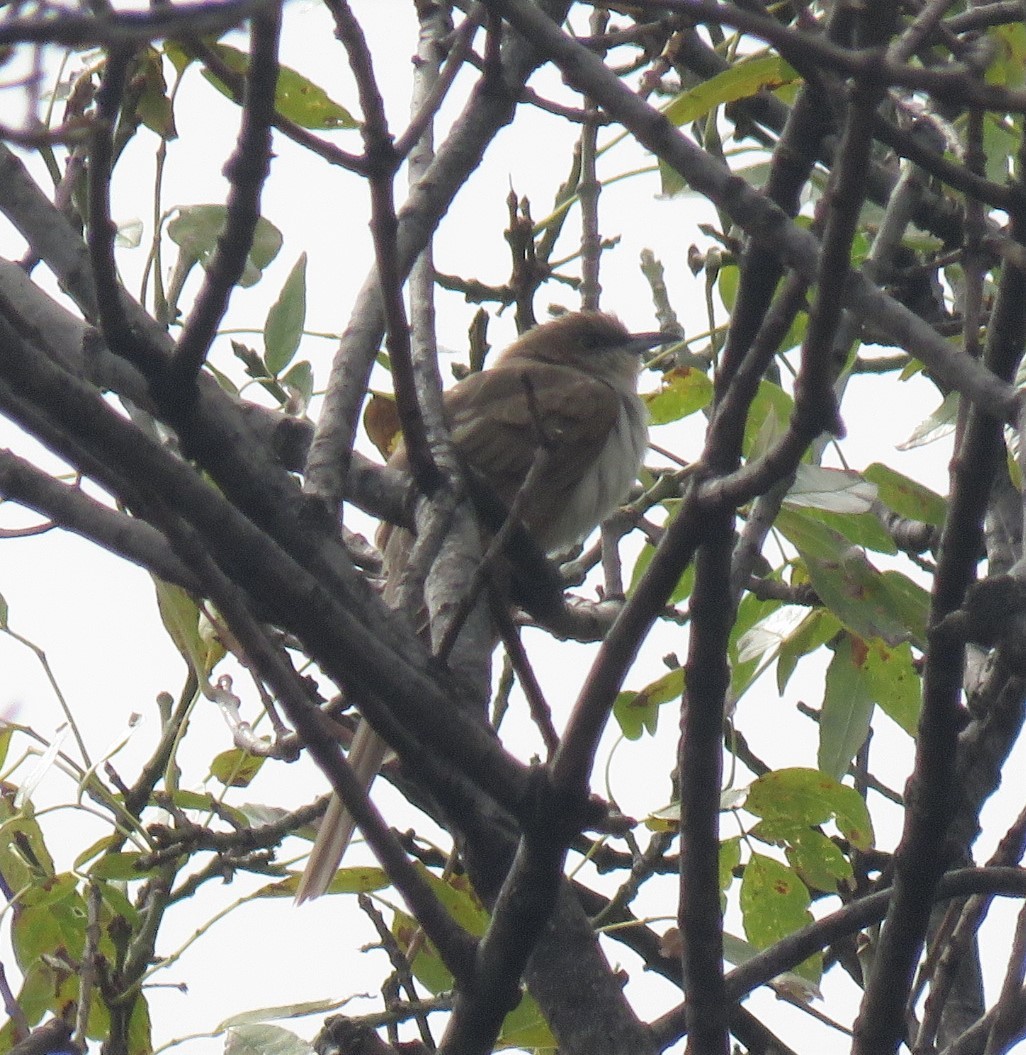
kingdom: Animalia
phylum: Chordata
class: Aves
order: Cuculiformes
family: Cuculidae
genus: Coccyzus
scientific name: Coccyzus erythropthalmus
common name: Black-billed cuckoo
